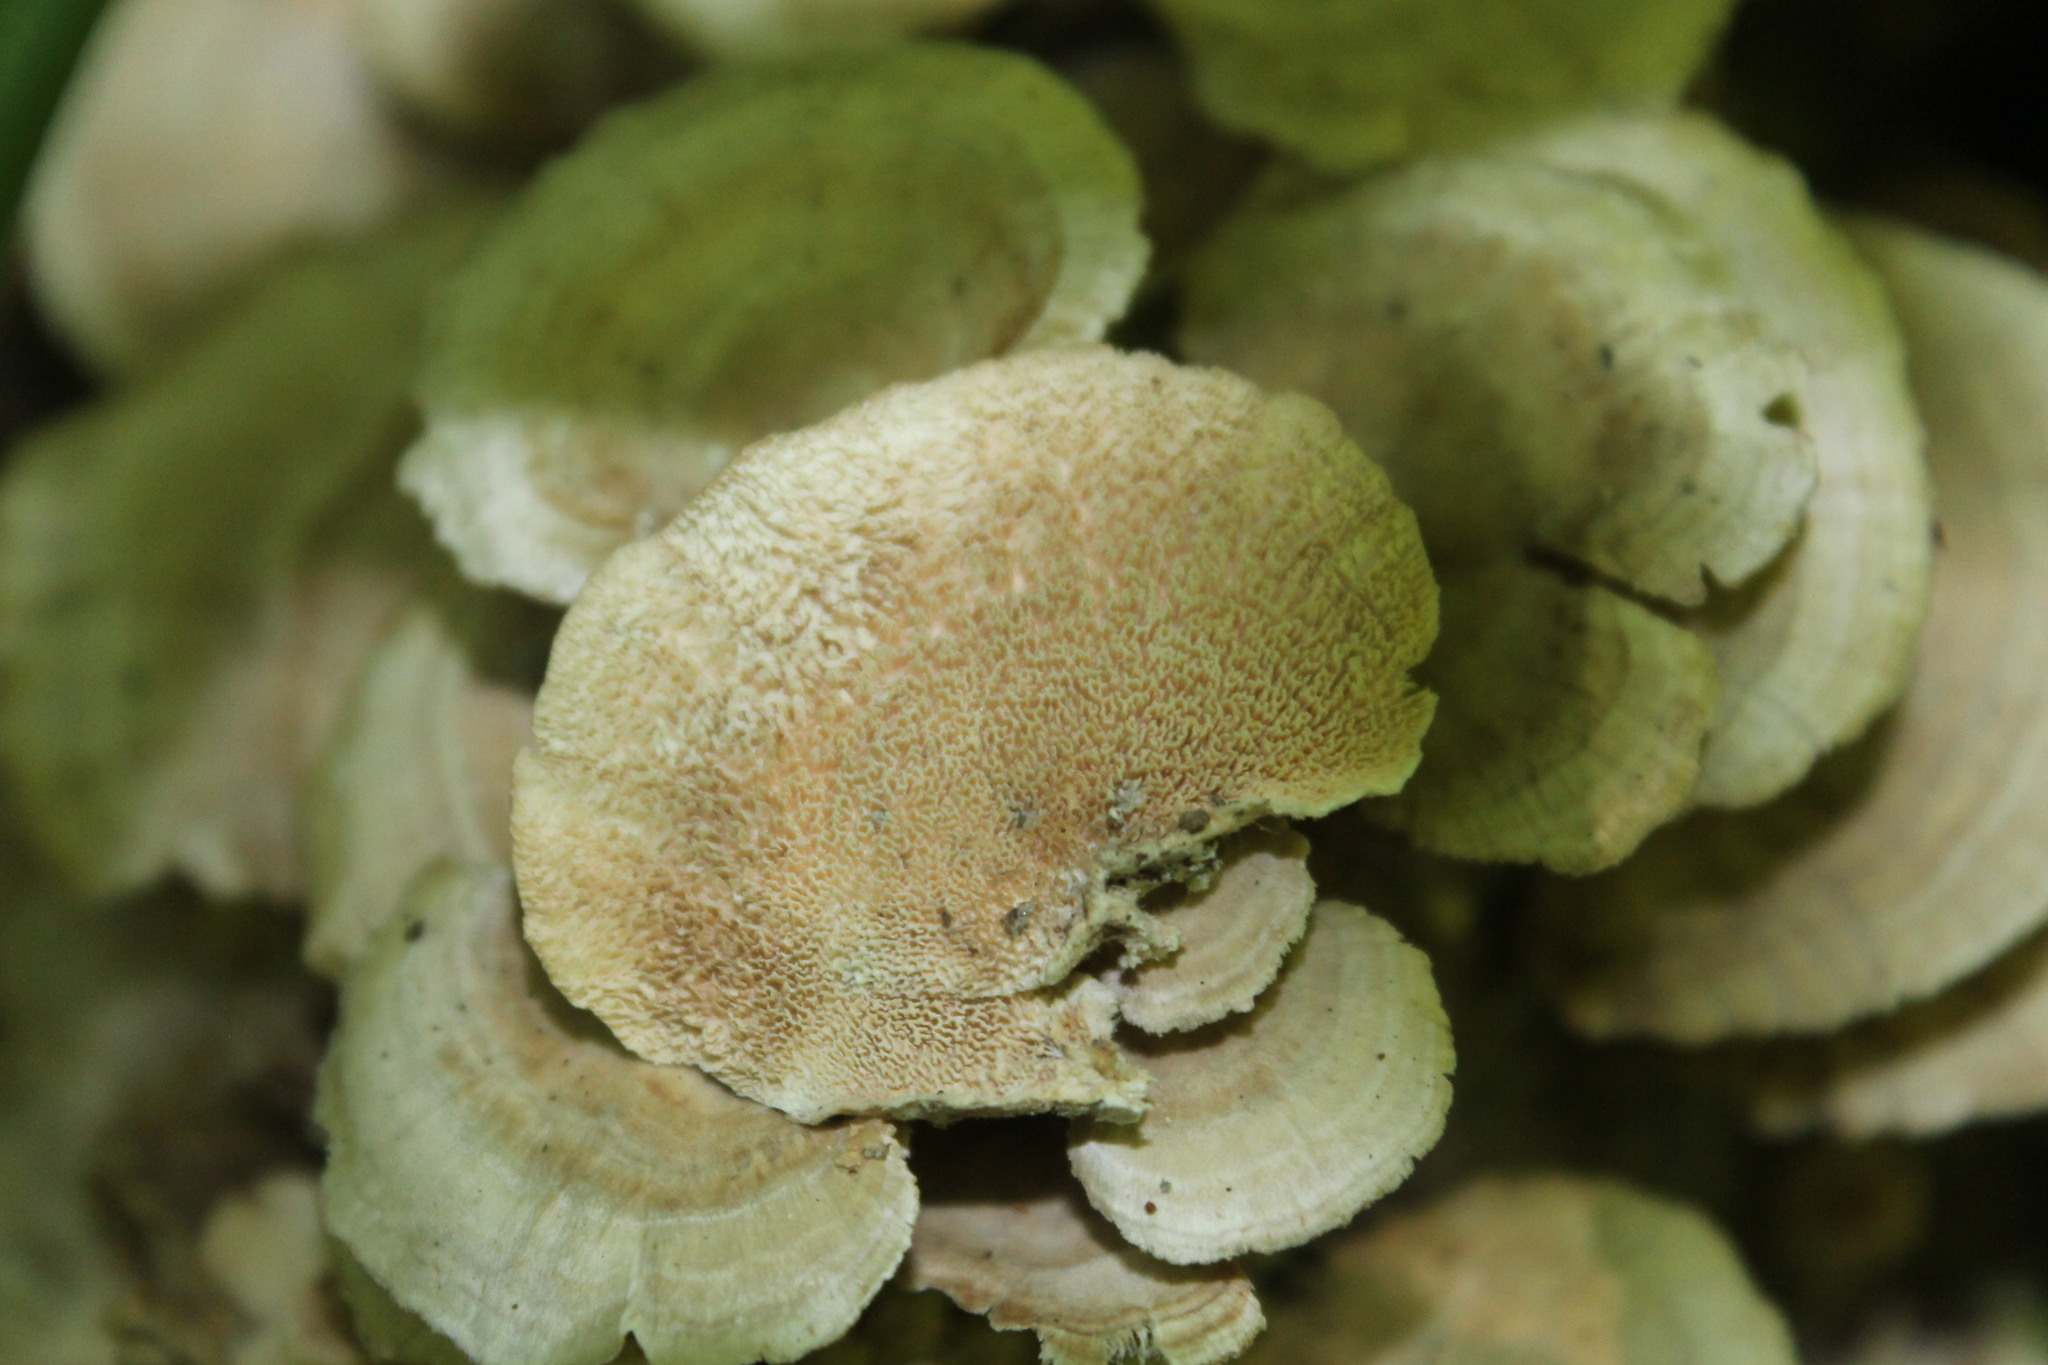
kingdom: Fungi
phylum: Basidiomycota
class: Agaricomycetes
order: Hymenochaetales
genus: Trichaptum
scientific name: Trichaptum biforme
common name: Violet-toothed polypore
